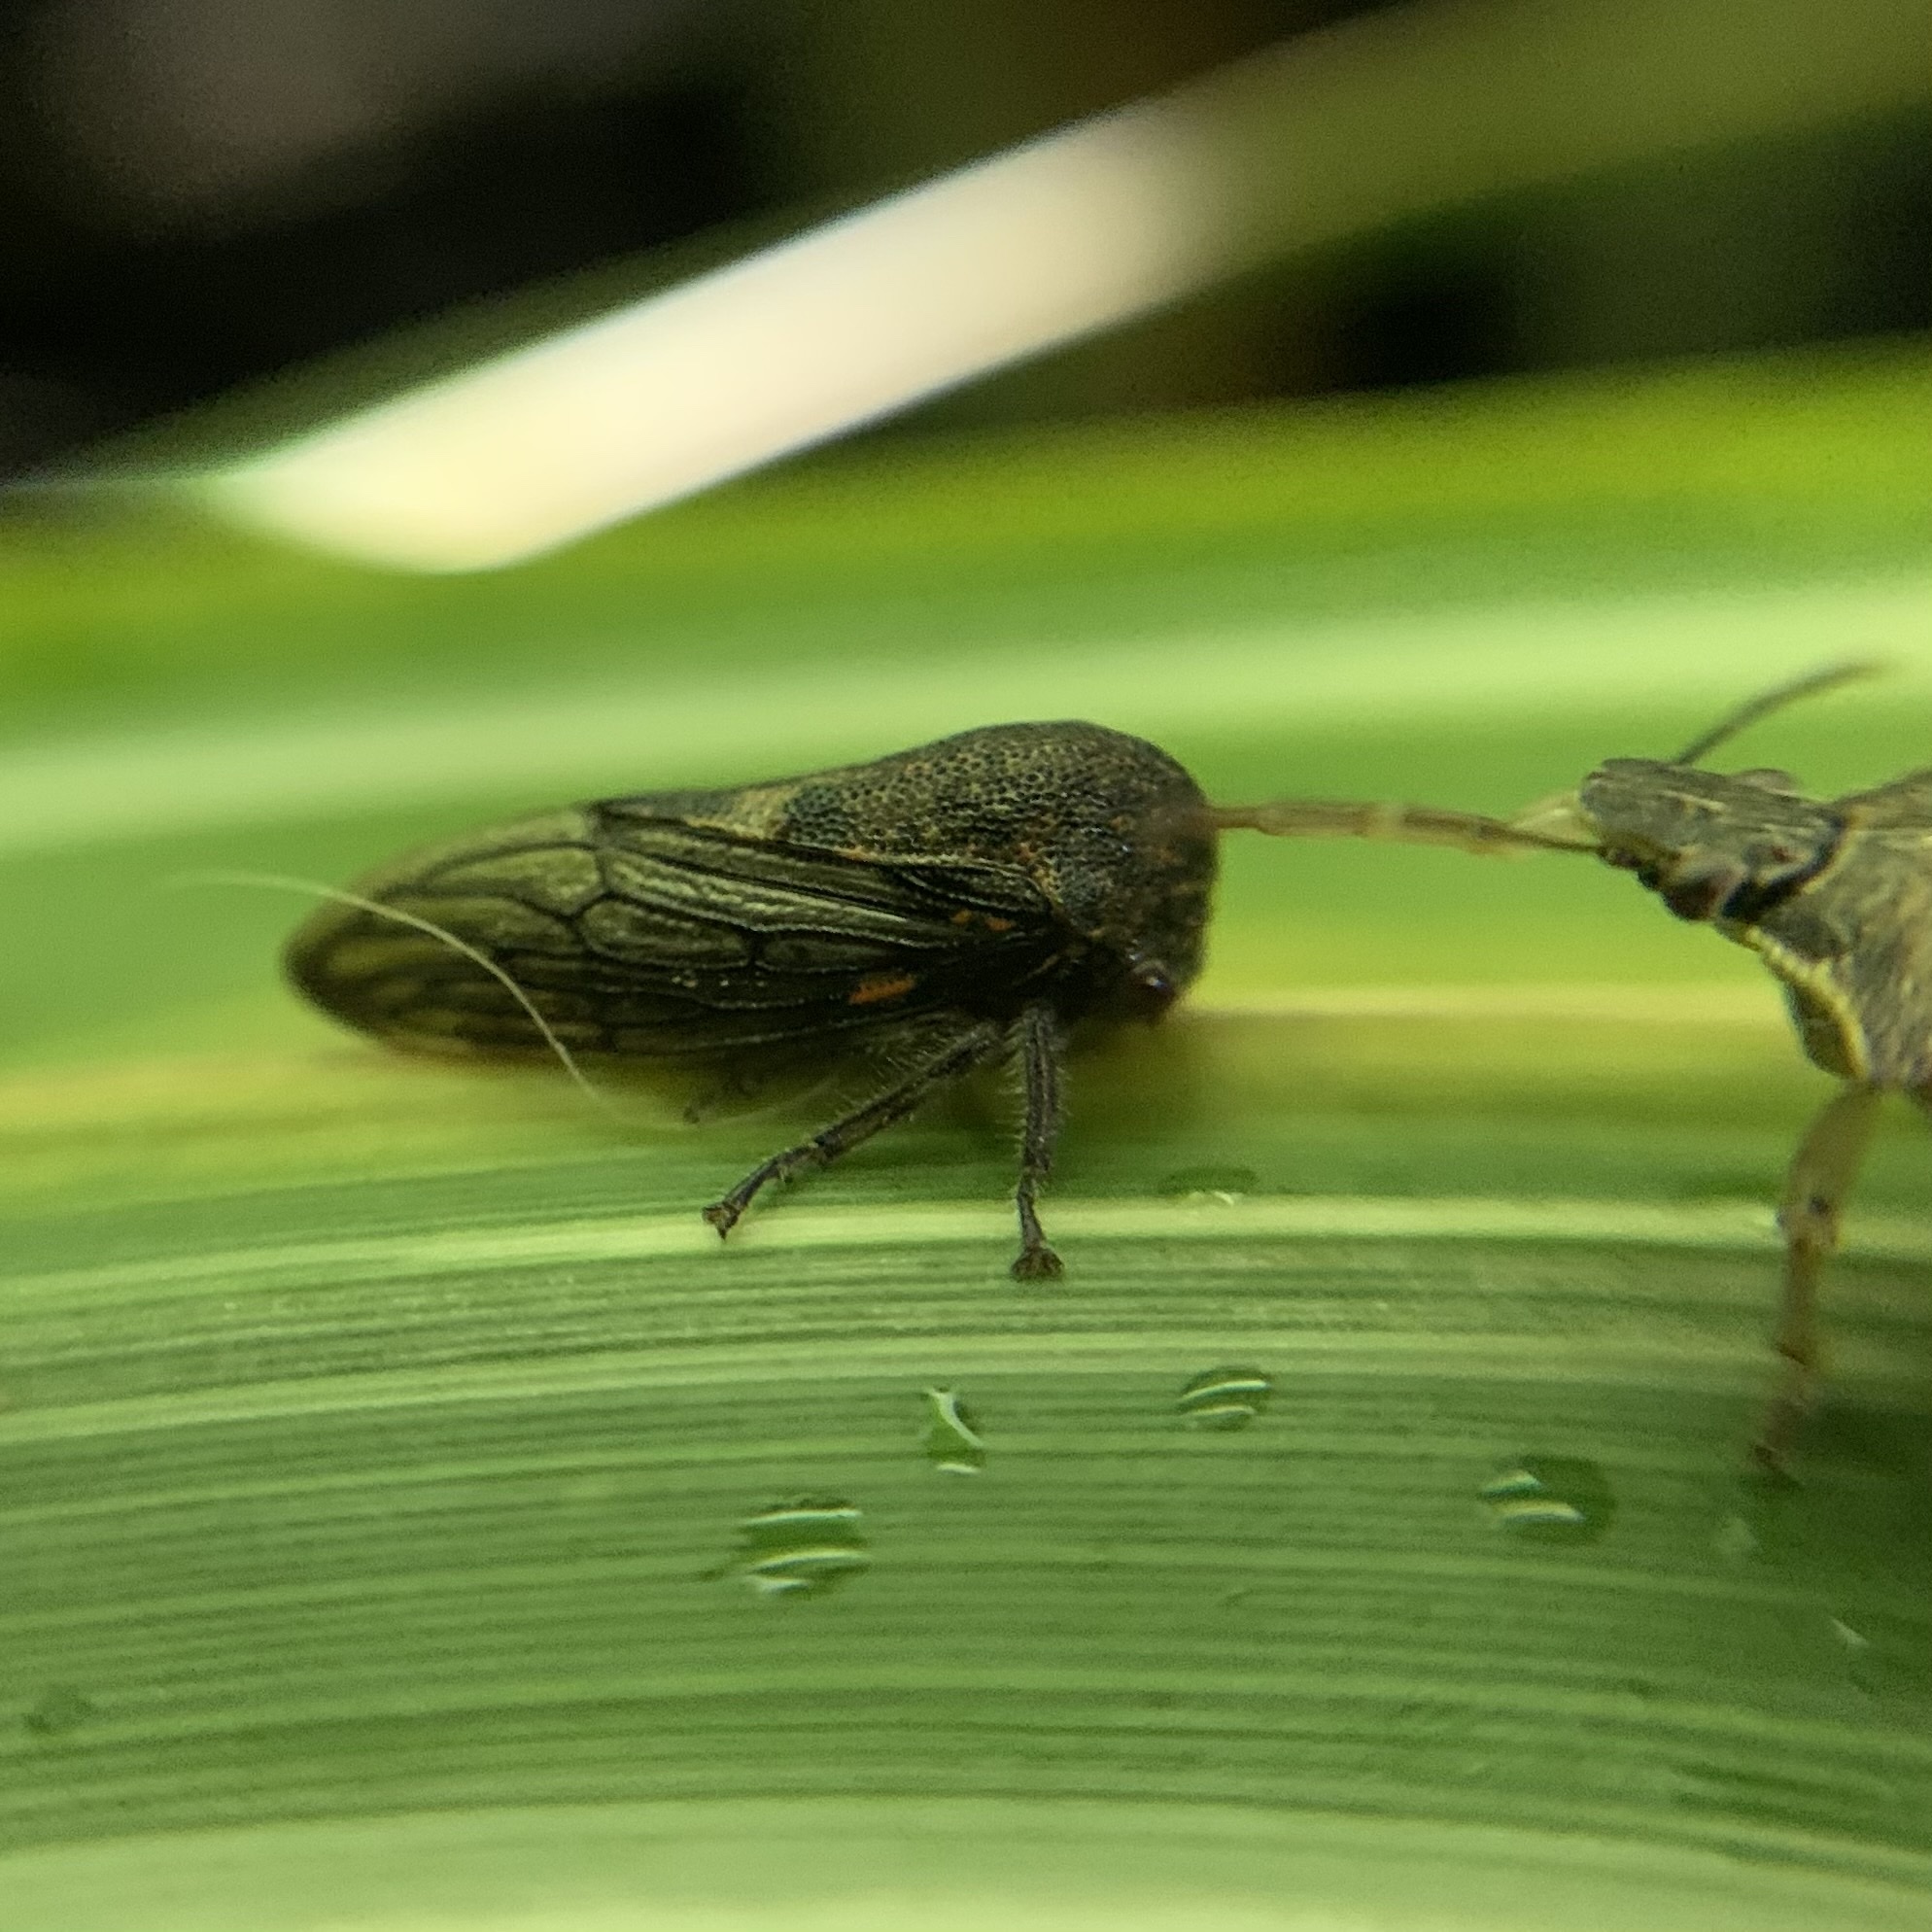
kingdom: Animalia
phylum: Arthropoda
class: Insecta
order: Hemiptera
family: Membracidae
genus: Platycotis
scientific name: Platycotis vittatus
